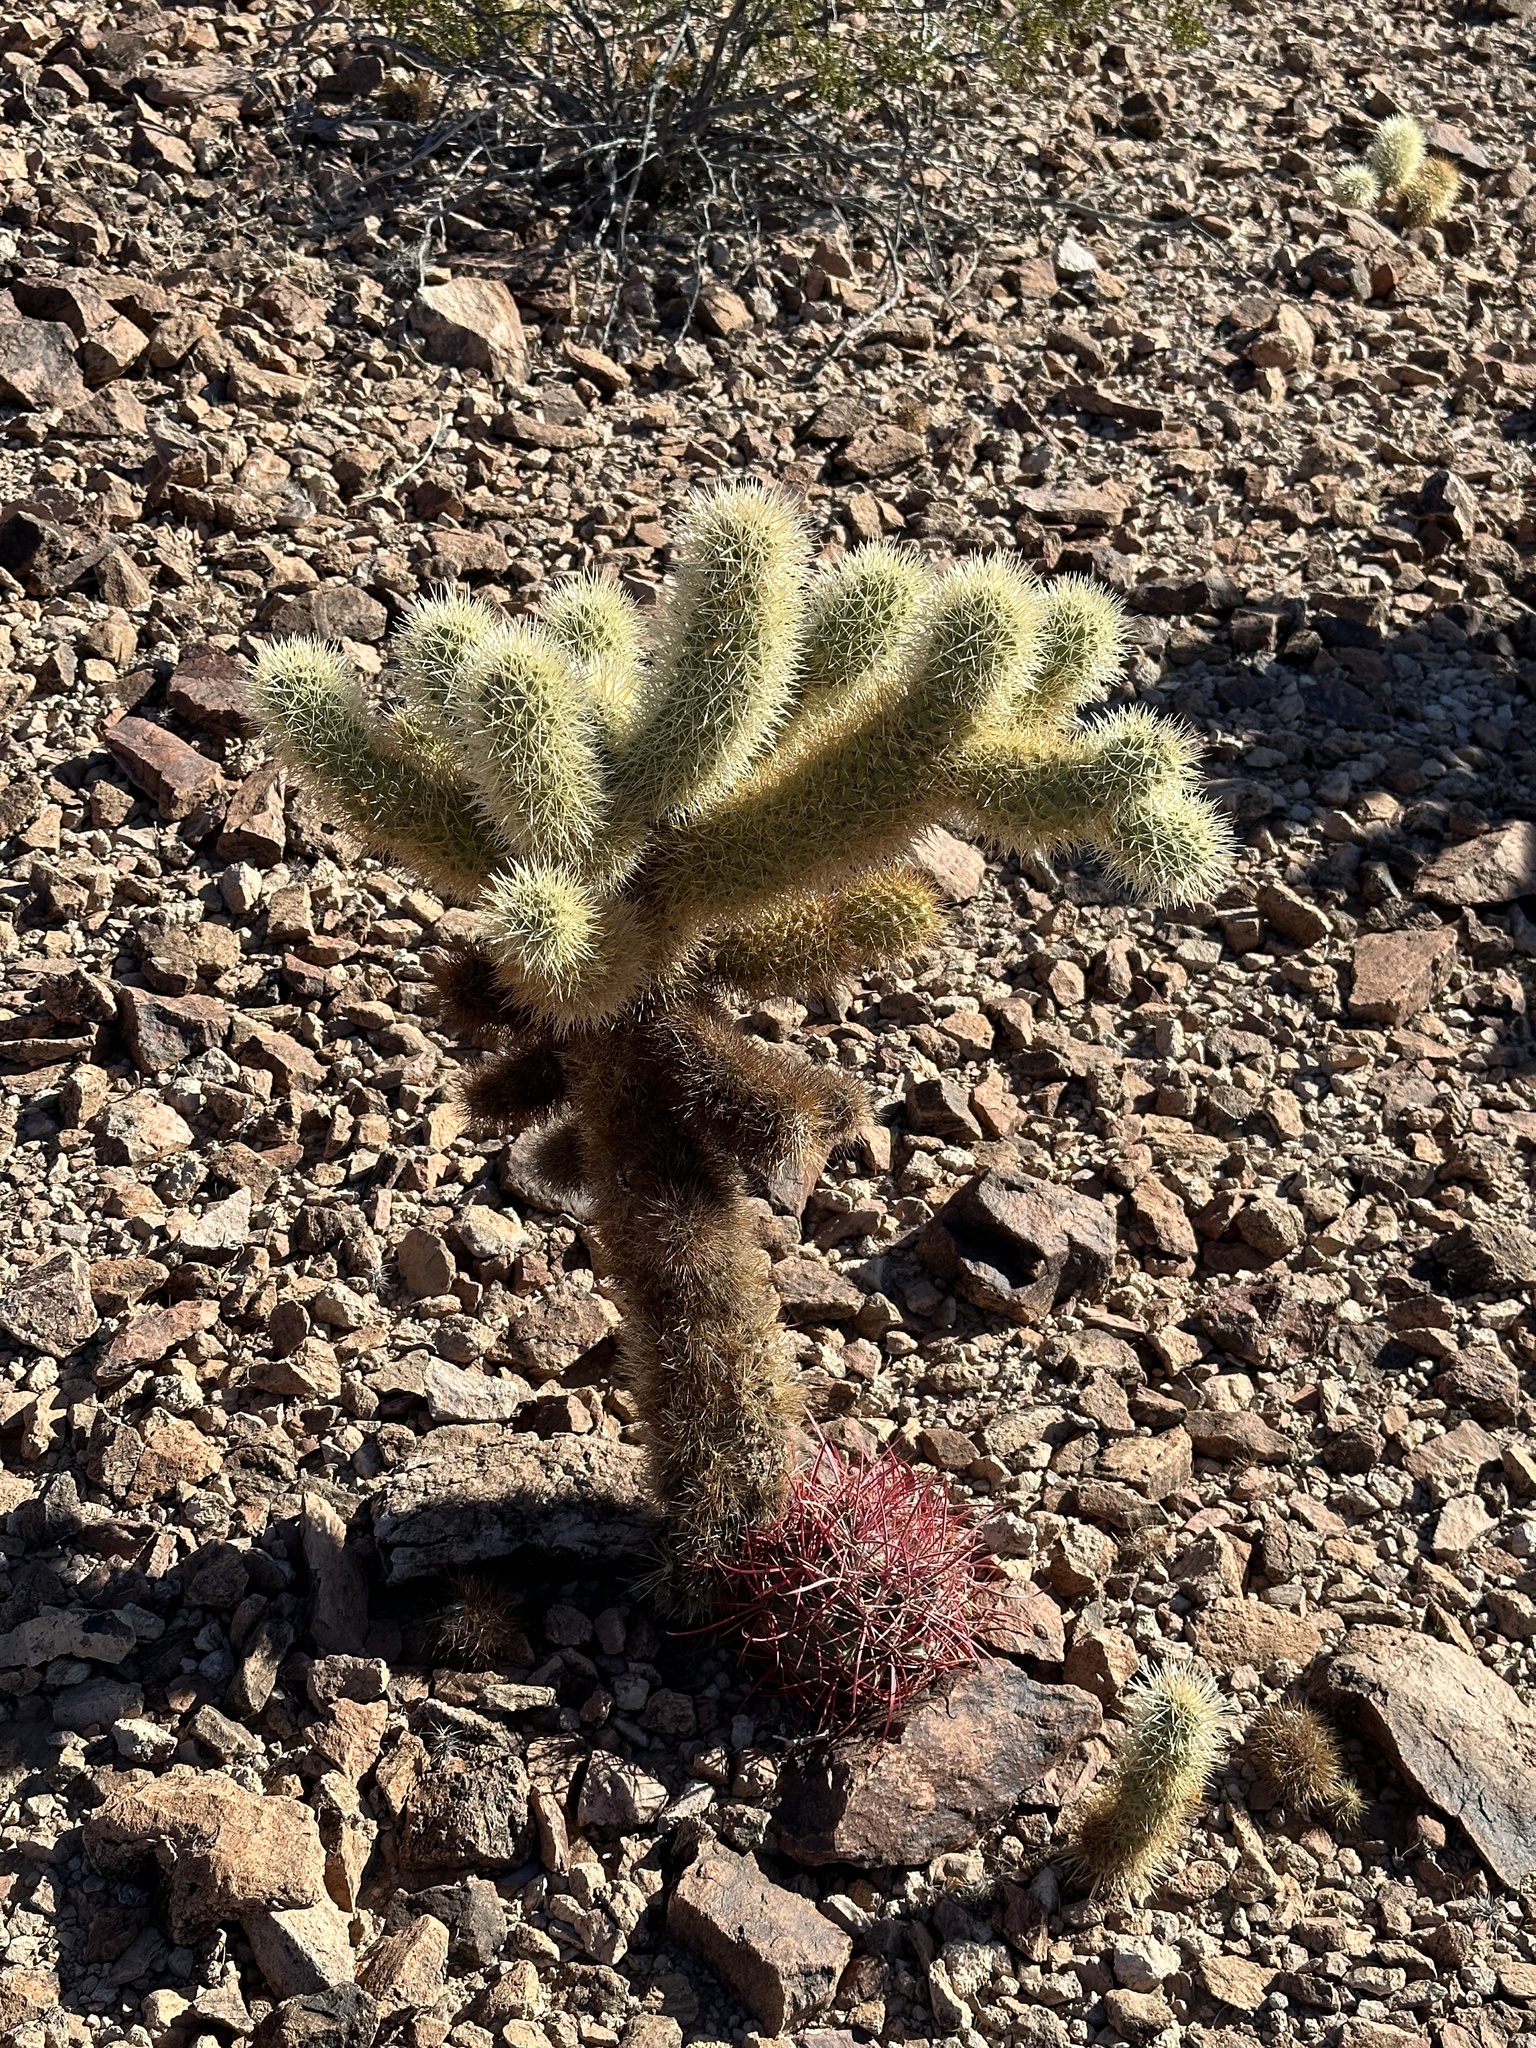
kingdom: Plantae
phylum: Tracheophyta
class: Magnoliopsida
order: Caryophyllales
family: Cactaceae
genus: Ferocactus
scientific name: Ferocactus cylindraceus
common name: California barrel cactus
